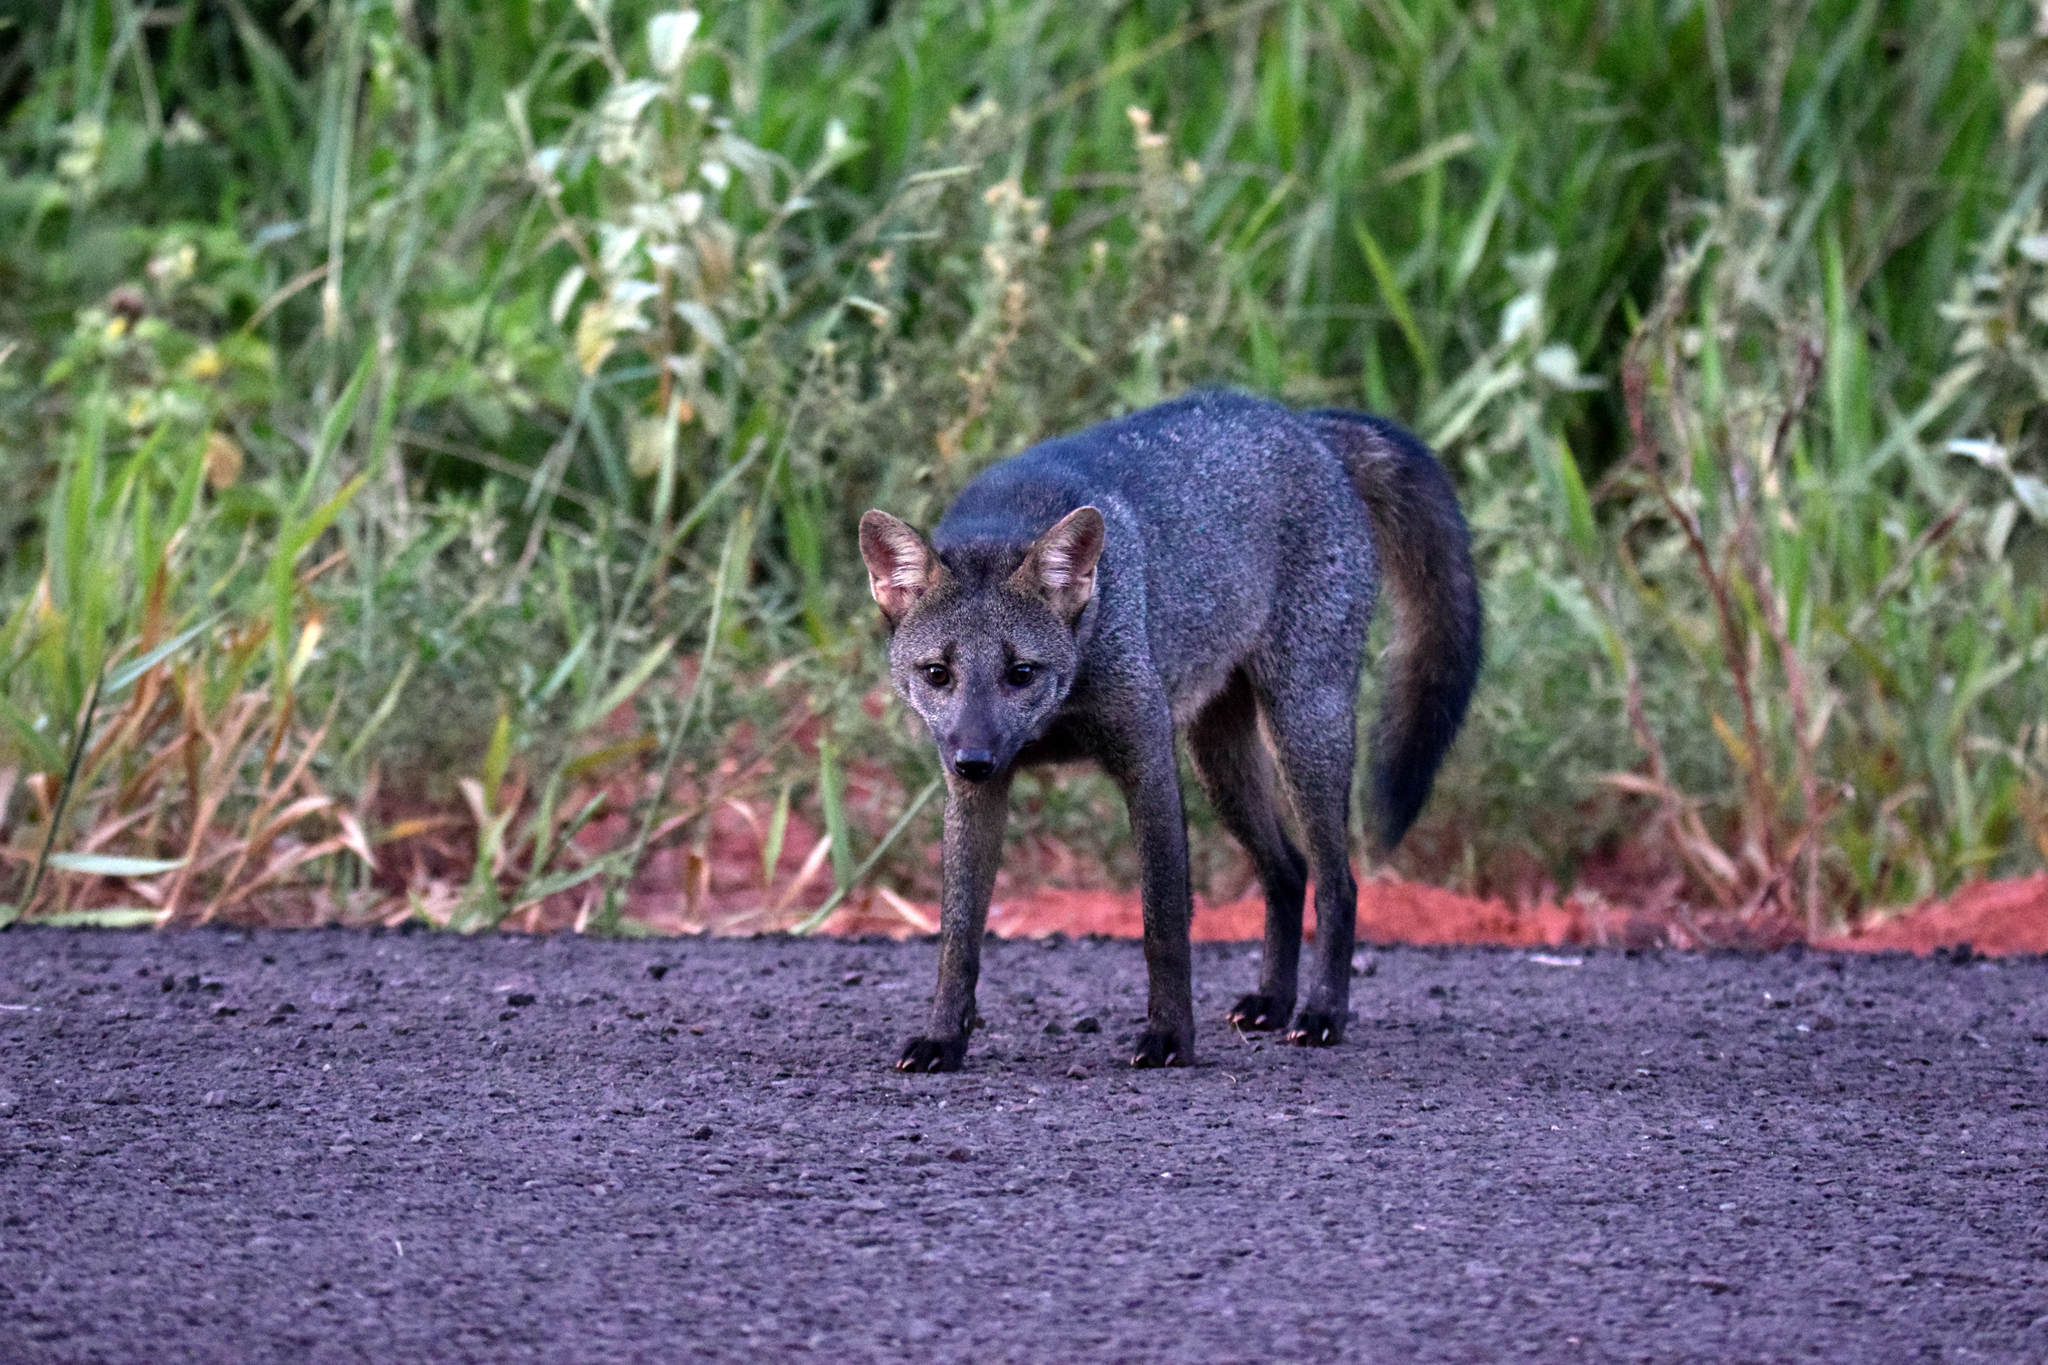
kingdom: Animalia
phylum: Chordata
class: Mammalia
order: Carnivora
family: Canidae
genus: Cerdocyon
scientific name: Cerdocyon thous
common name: Crab-eating fox
